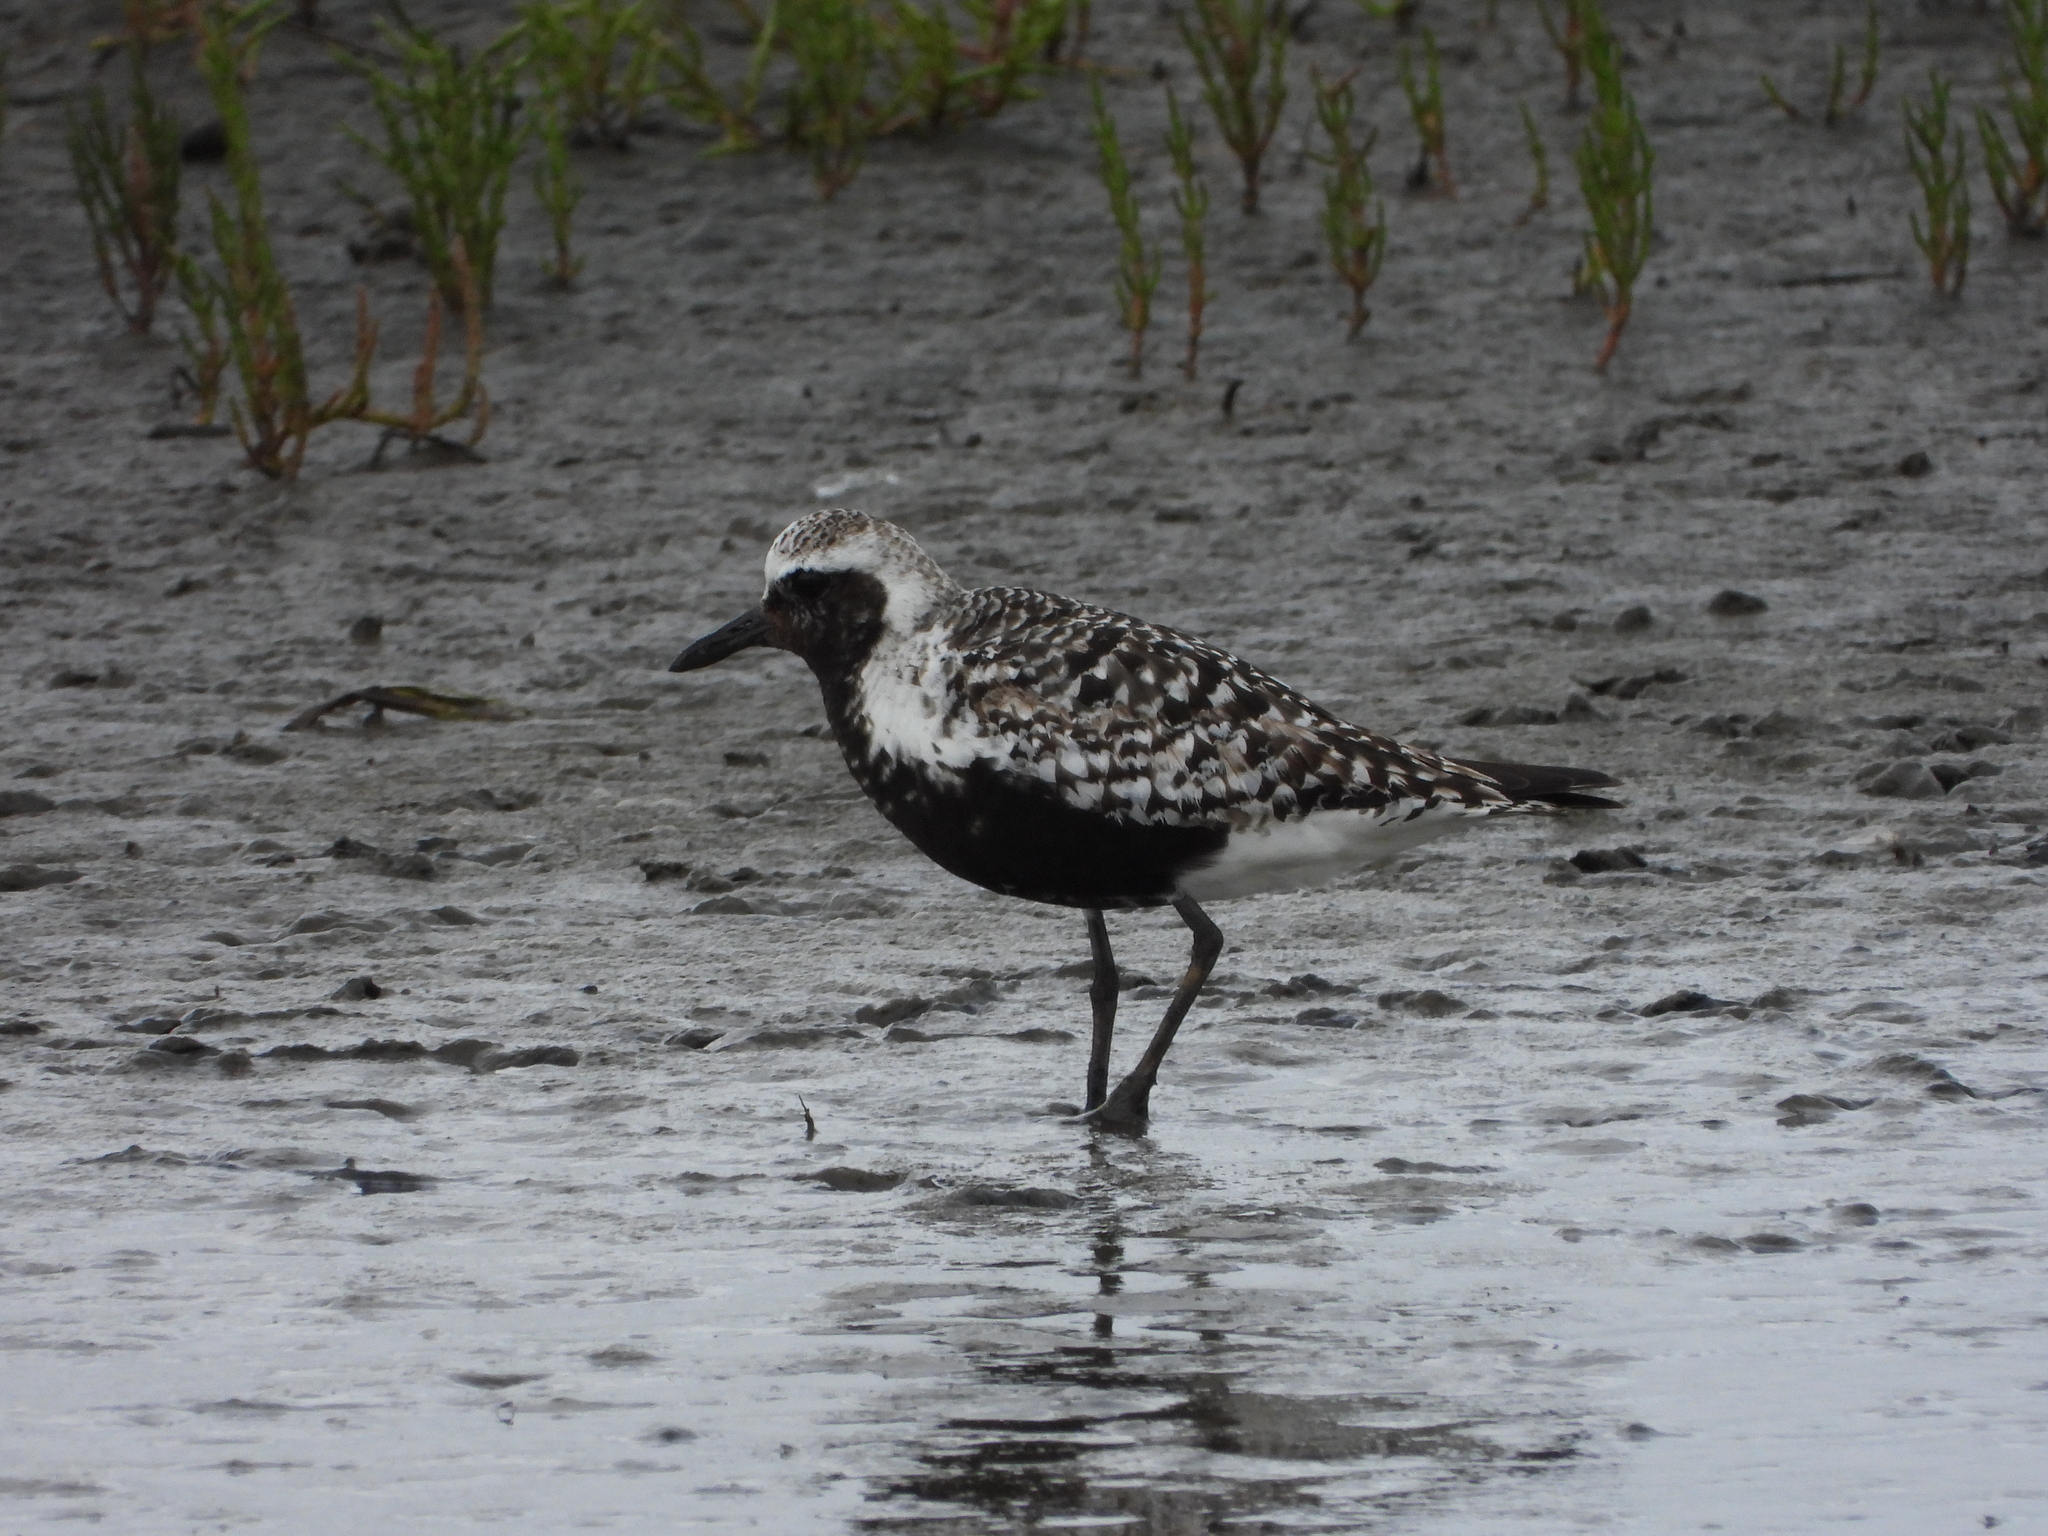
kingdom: Animalia
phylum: Chordata
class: Aves
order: Charadriiformes
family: Charadriidae
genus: Pluvialis
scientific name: Pluvialis squatarola
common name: Grey plover
